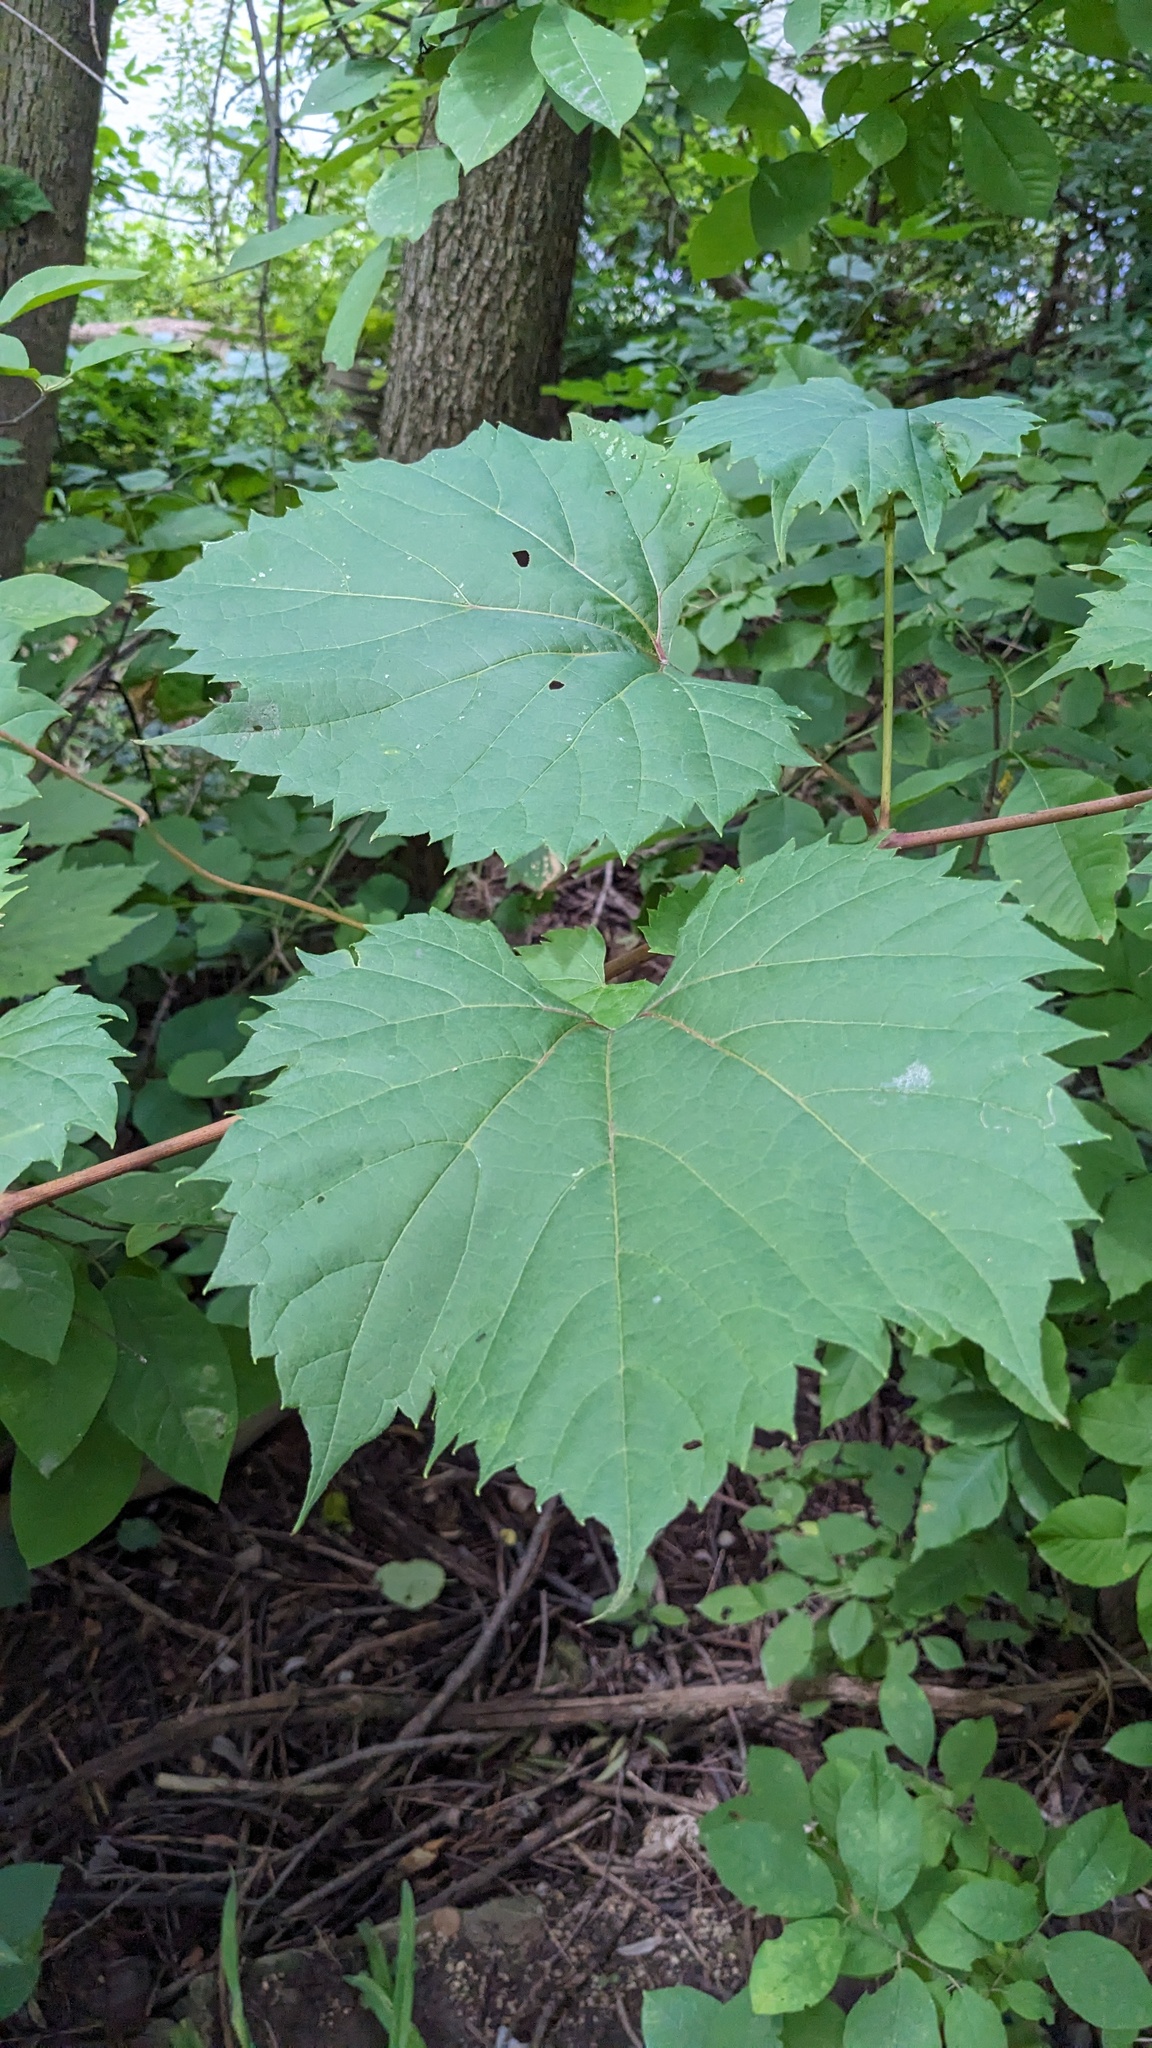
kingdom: Plantae
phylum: Tracheophyta
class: Magnoliopsida
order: Vitales
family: Vitaceae
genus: Vitis
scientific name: Vitis riparia
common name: Frost grape
